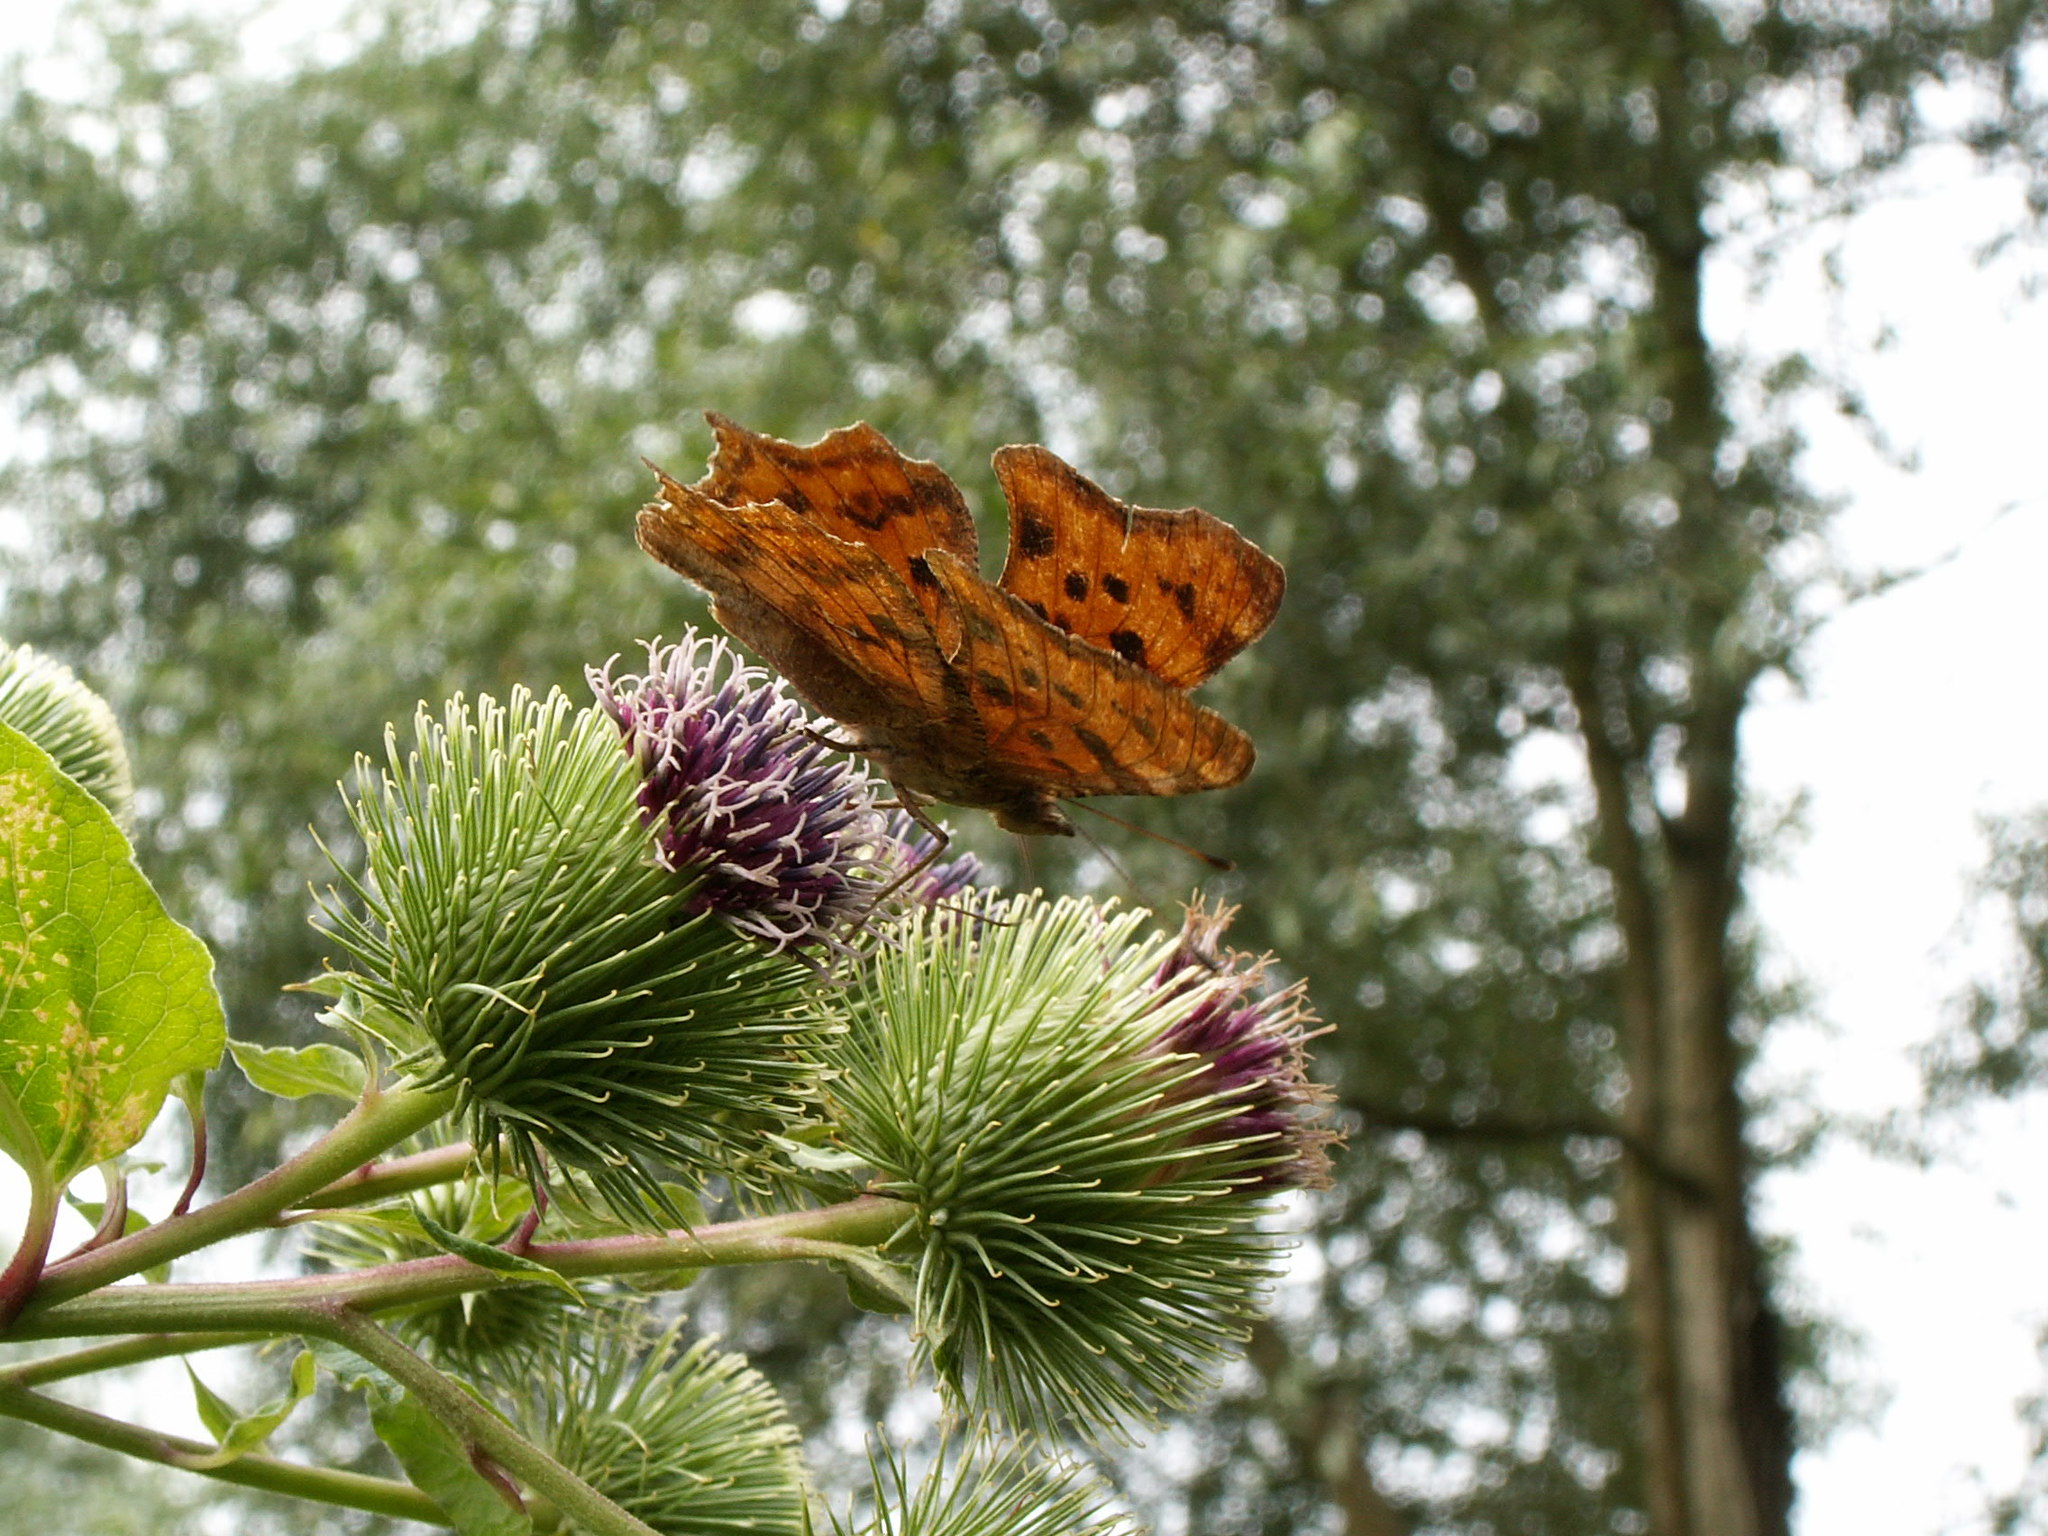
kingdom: Animalia
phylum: Arthropoda
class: Insecta
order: Lepidoptera
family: Nymphalidae
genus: Polygonia
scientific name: Polygonia c-album
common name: Comma
